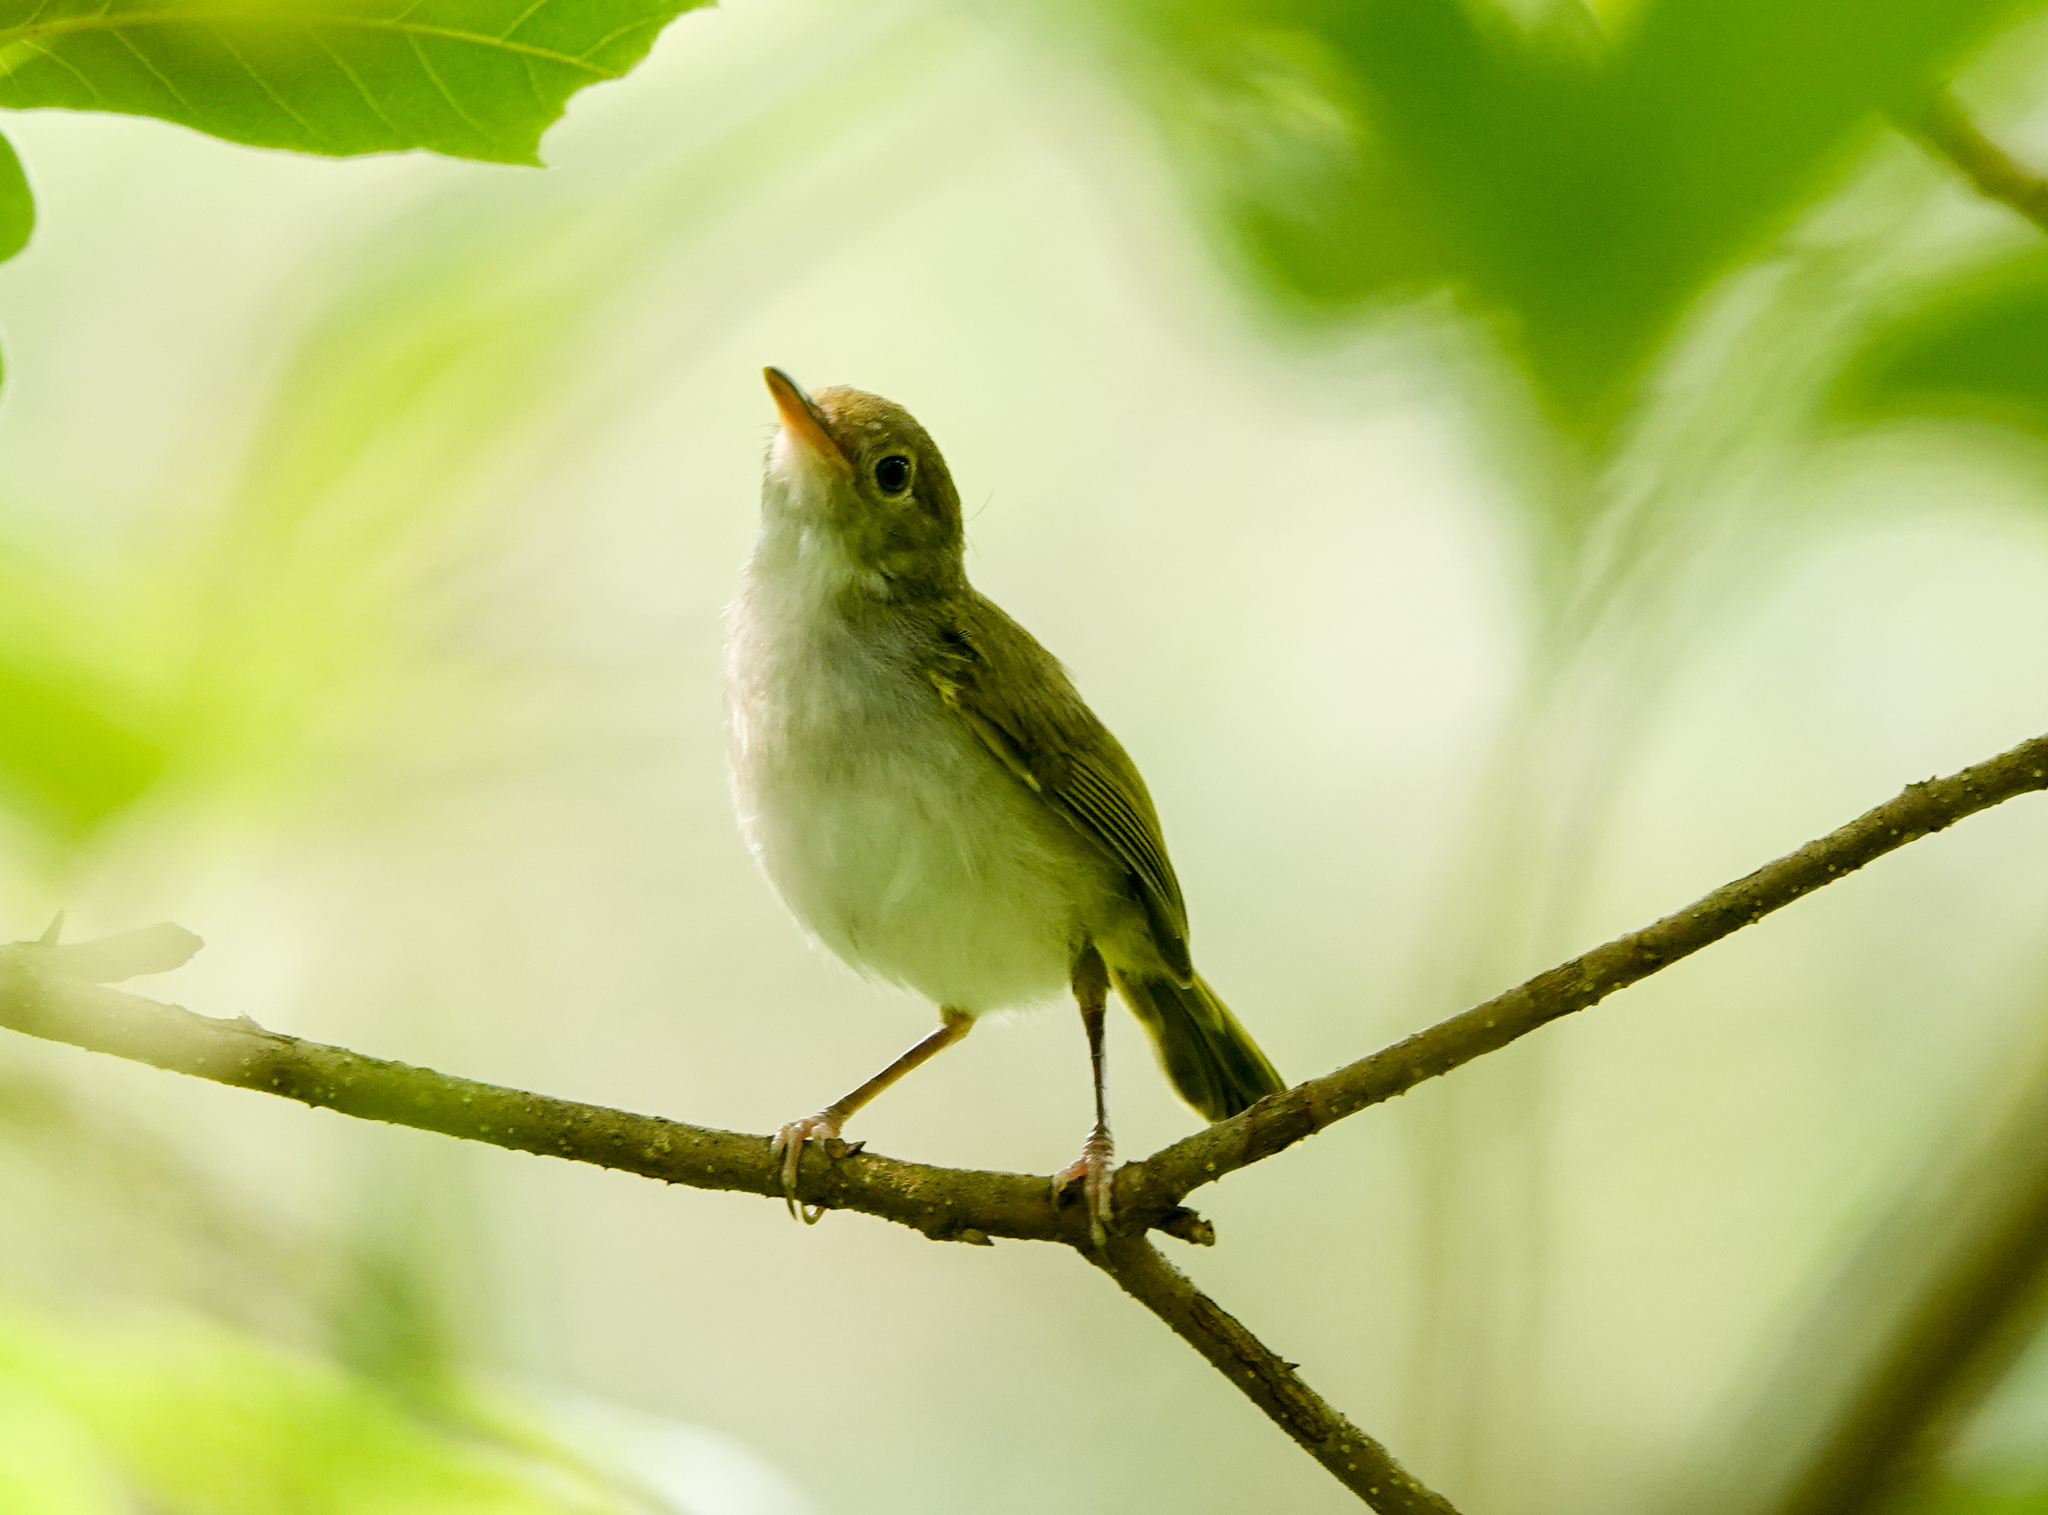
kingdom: Animalia
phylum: Chordata
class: Aves
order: Passeriformes
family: Cisticolidae
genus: Orthotomus
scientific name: Orthotomus atrogularis
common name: Dark-necked tailorbird
